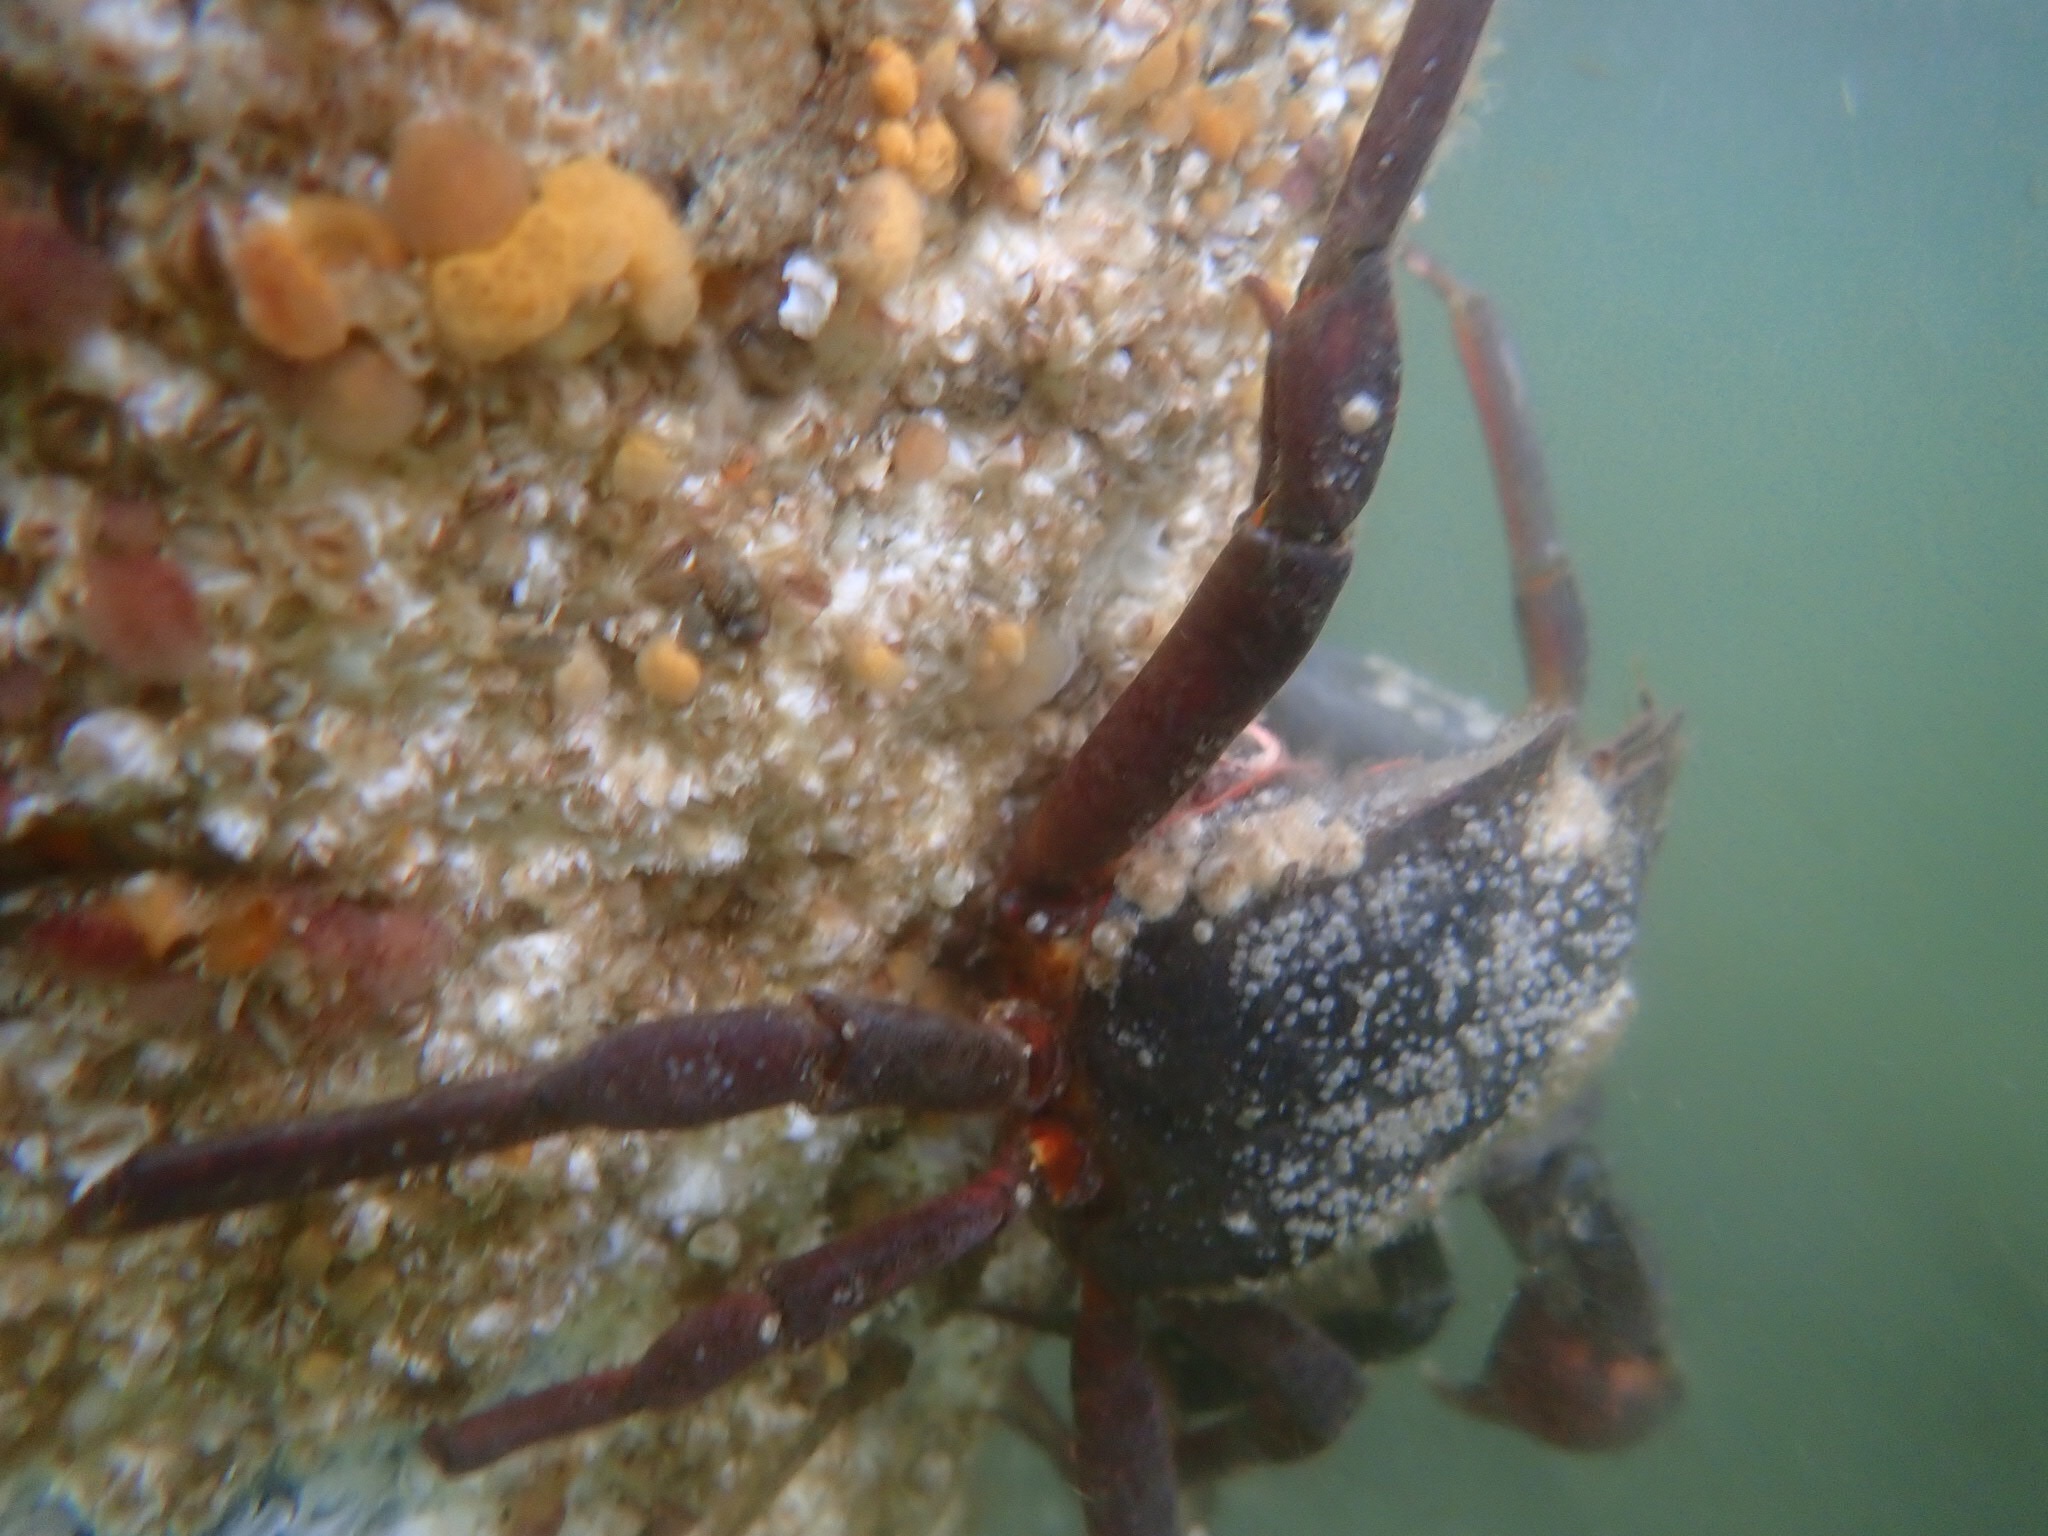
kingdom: Animalia
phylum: Arthropoda
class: Malacostraca
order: Decapoda
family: Epialtidae
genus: Pugettia
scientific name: Pugettia producta
